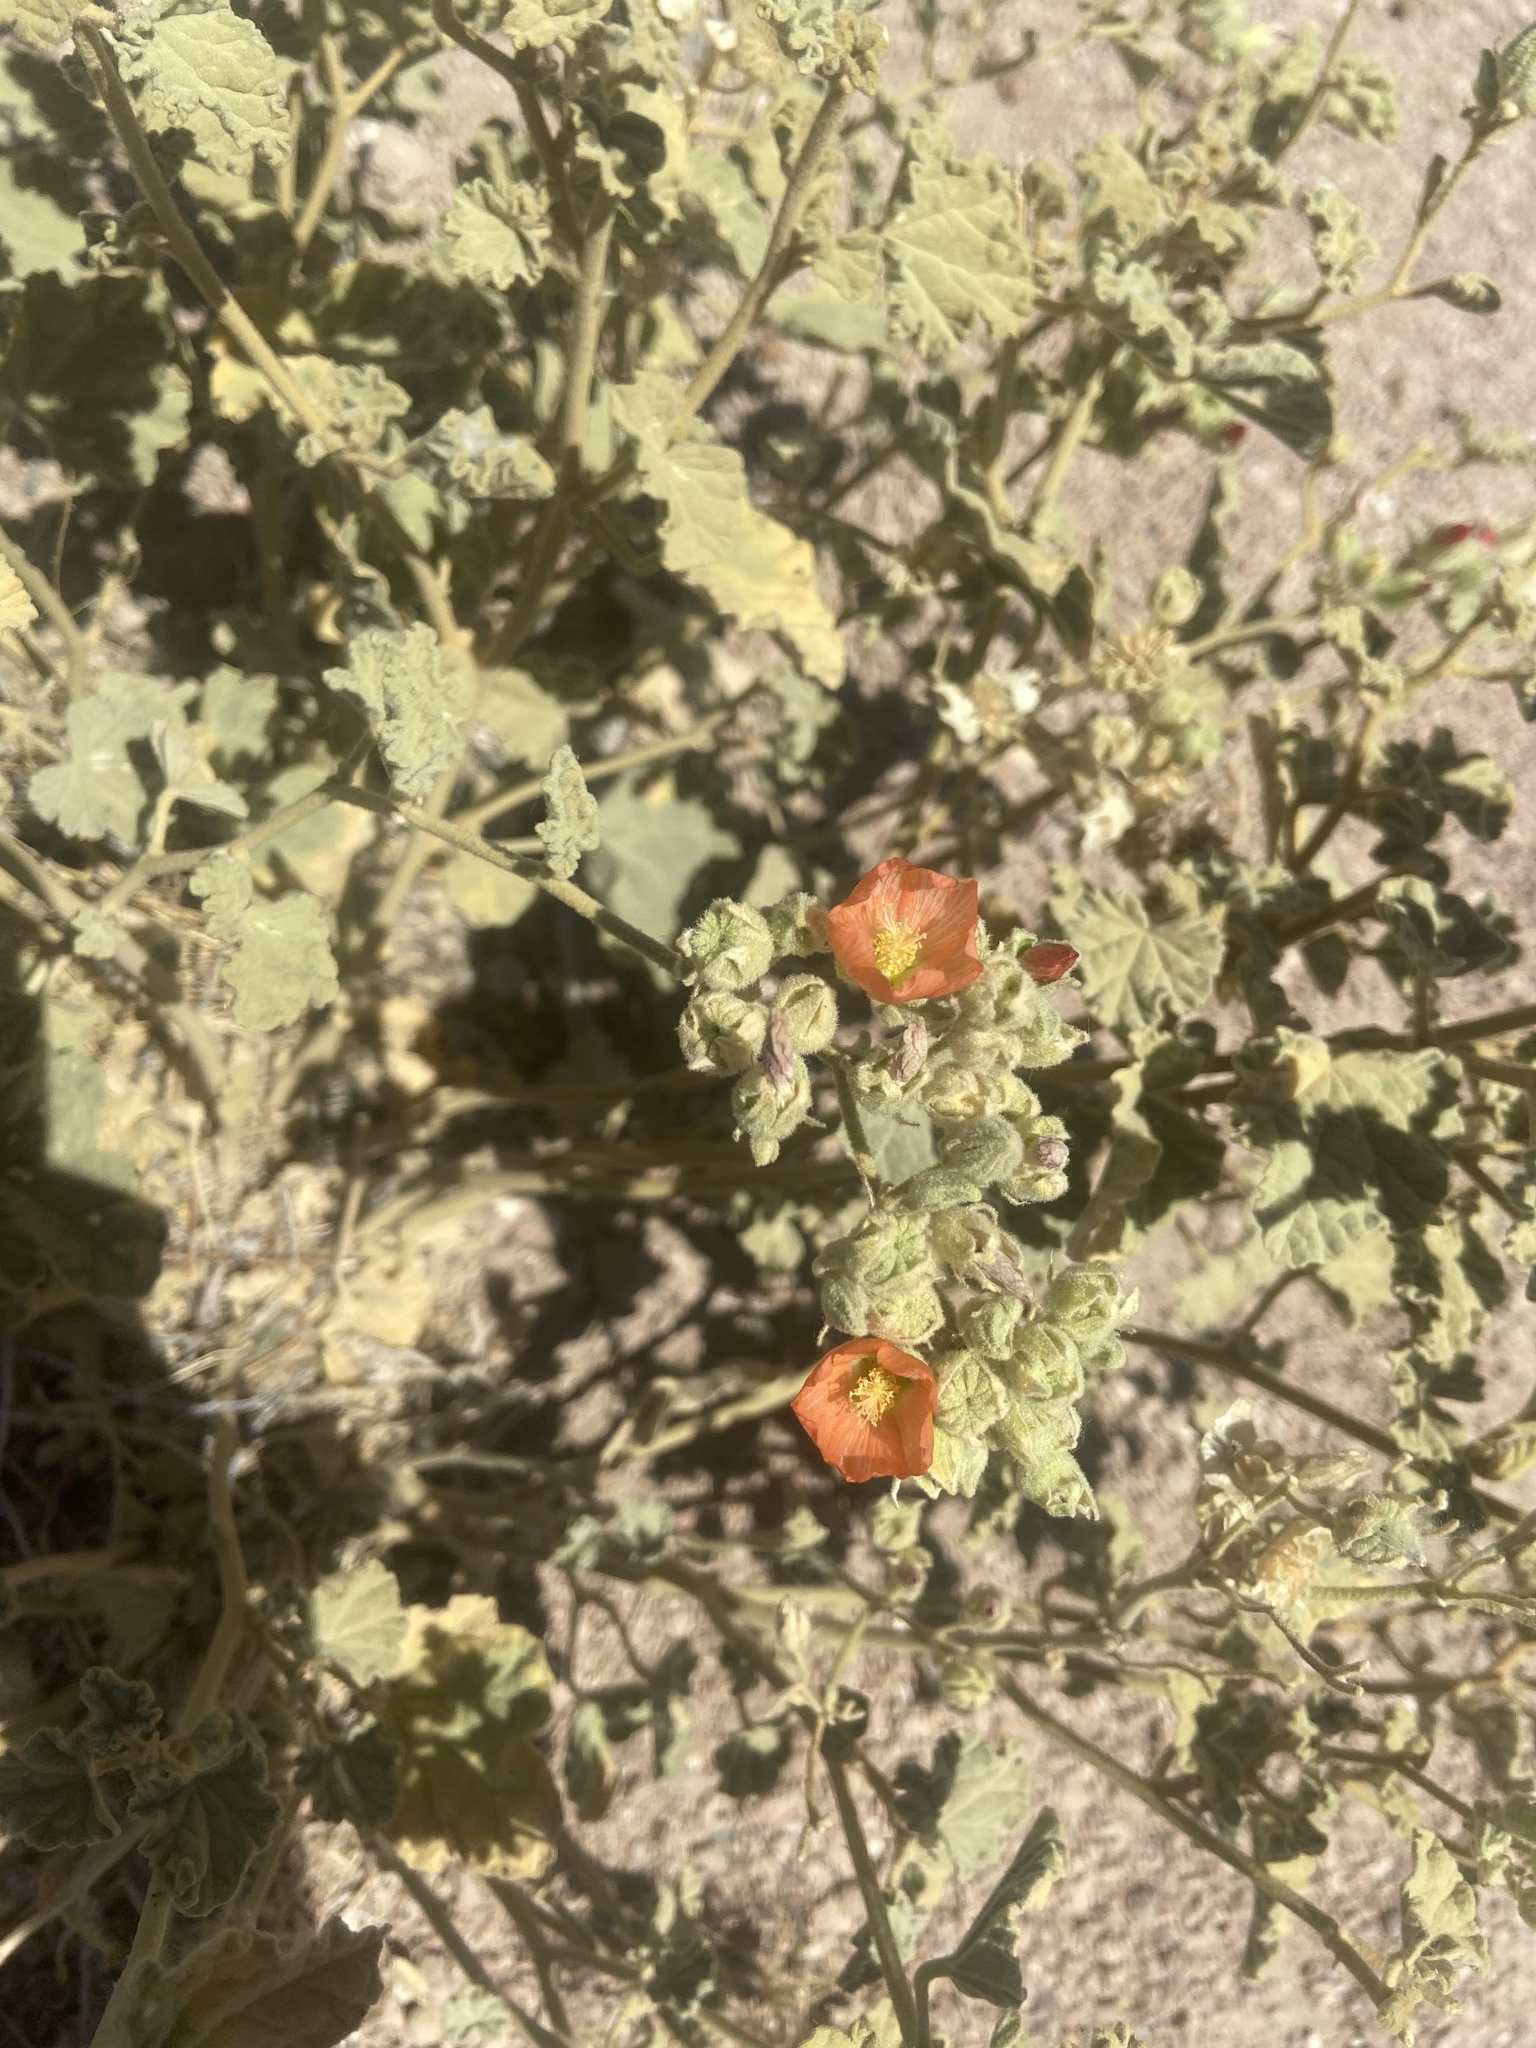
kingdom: Plantae
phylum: Tracheophyta
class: Magnoliopsida
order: Malvales
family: Malvaceae
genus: Sphaeralcea
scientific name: Sphaeralcea ambigua
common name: Apricot globe-mallow
